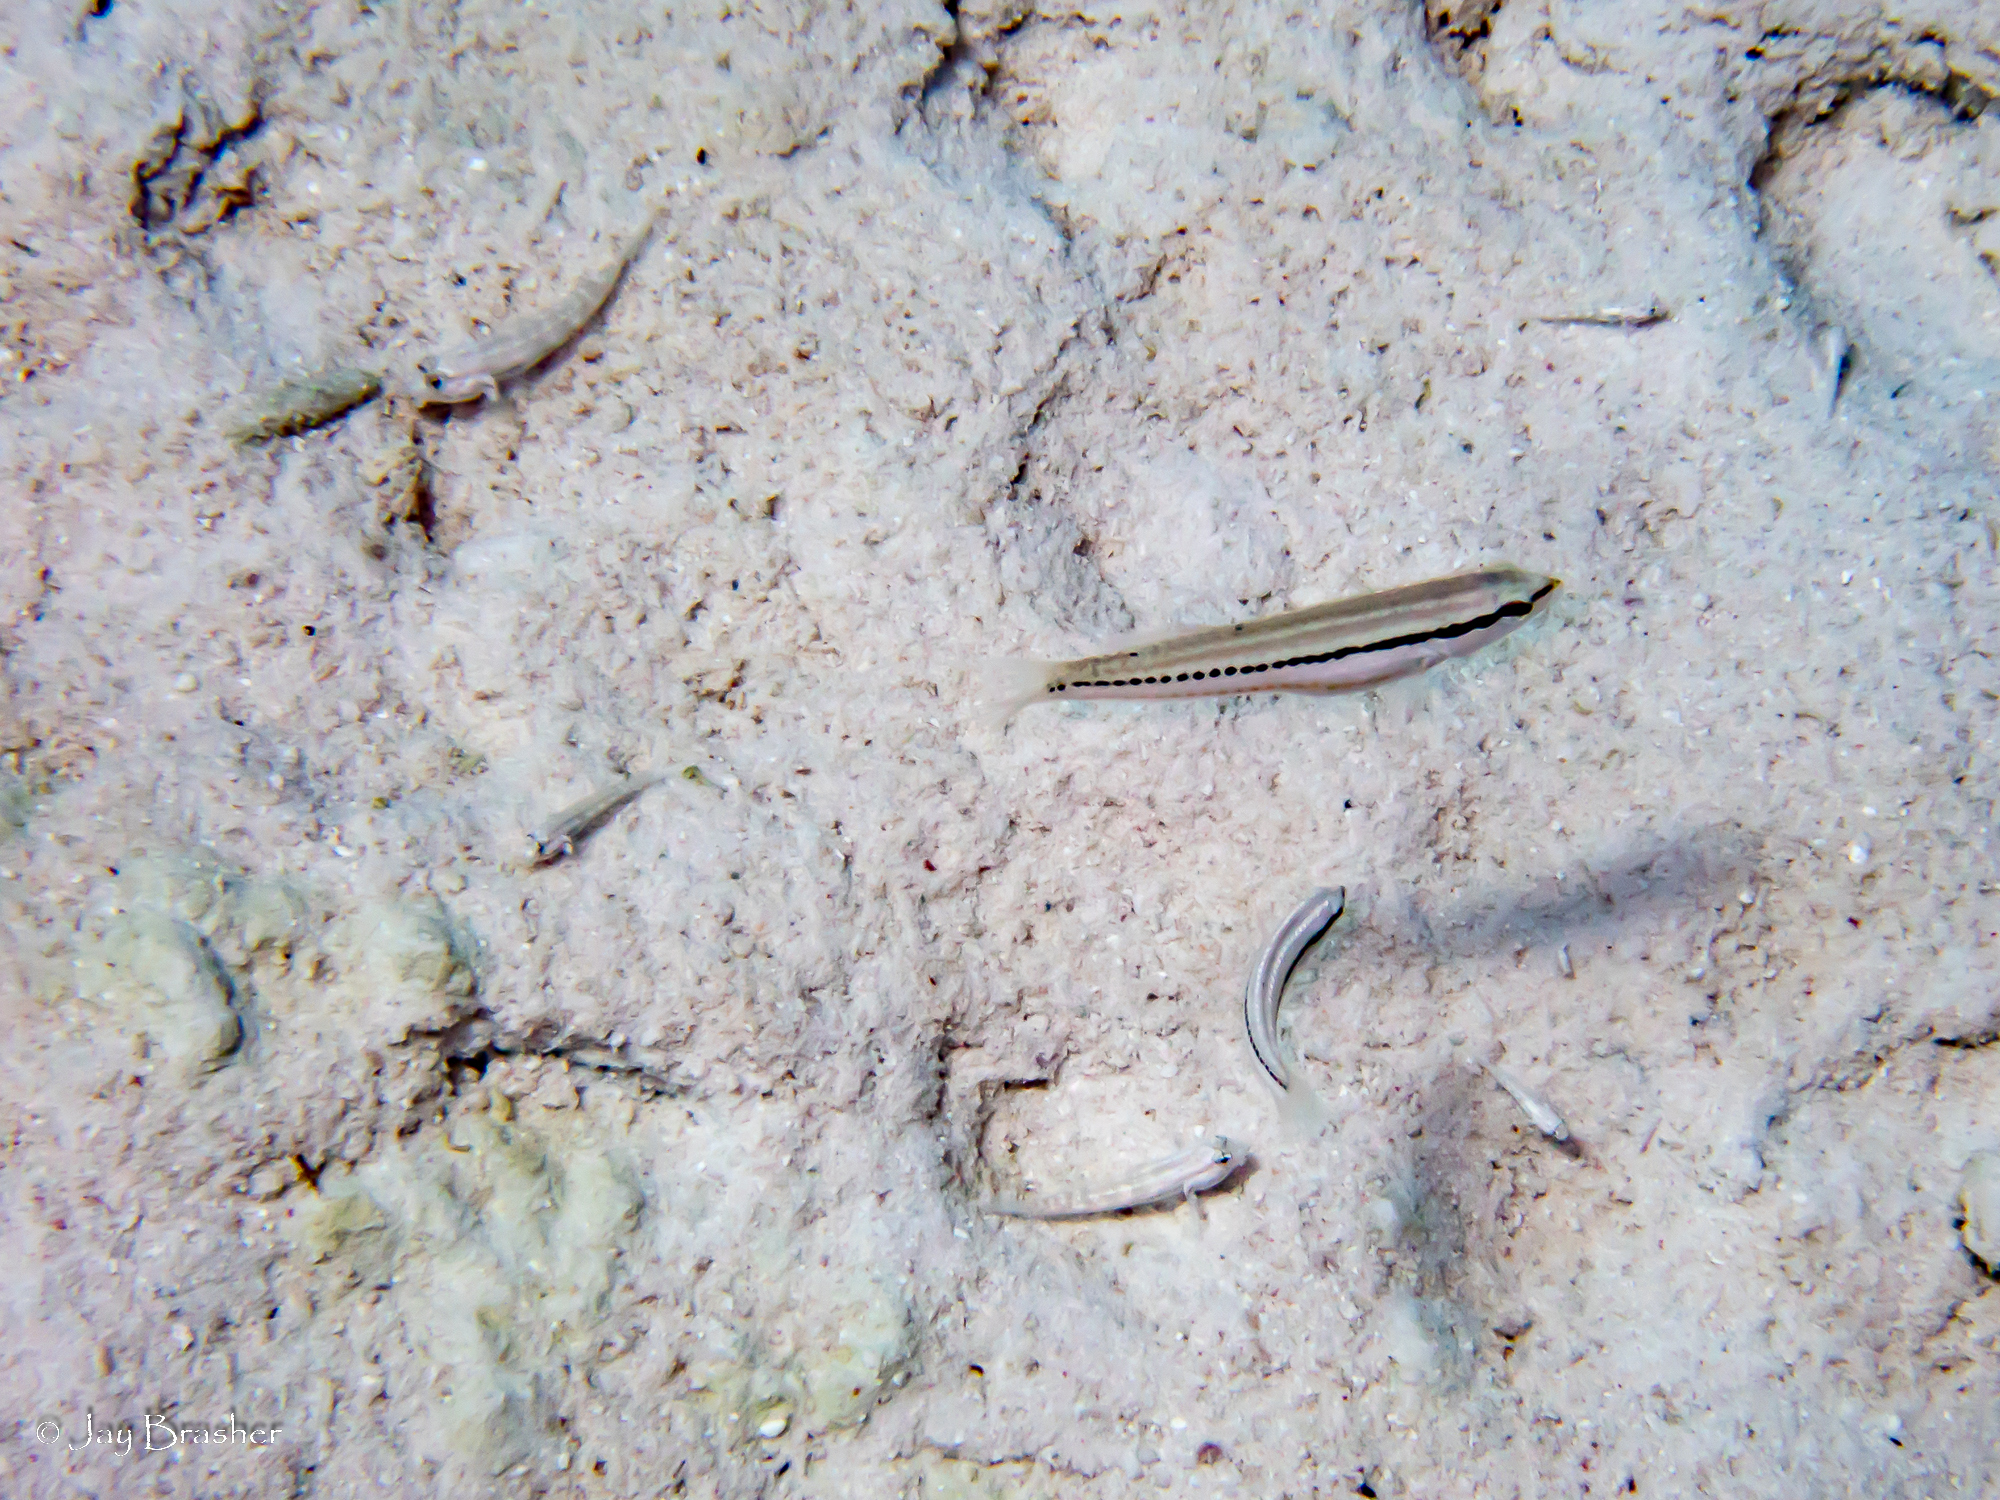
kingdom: Animalia
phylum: Chordata
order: Perciformes
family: Labridae
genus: Halichoeres
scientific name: Halichoeres bivittatus
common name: Slippery dick
